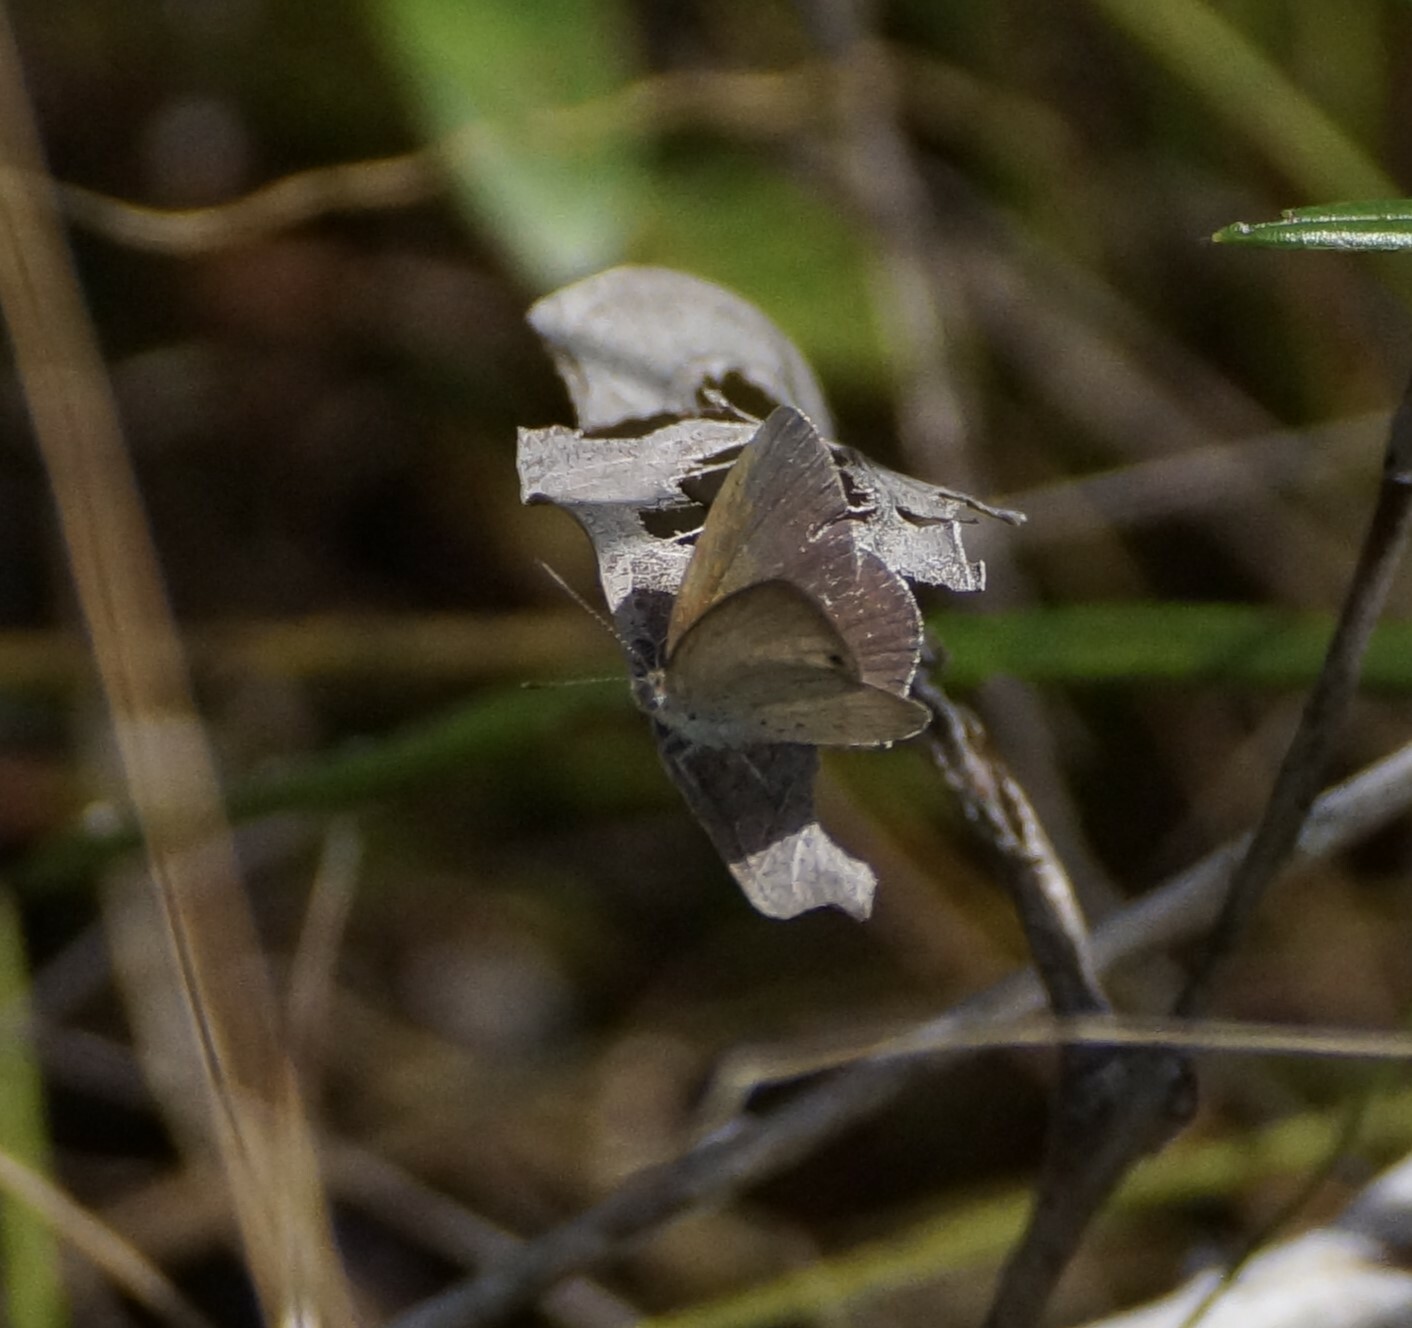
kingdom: Animalia
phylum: Arthropoda
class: Insecta
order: Lepidoptera
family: Lycaenidae
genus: Candalides
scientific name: Candalides
